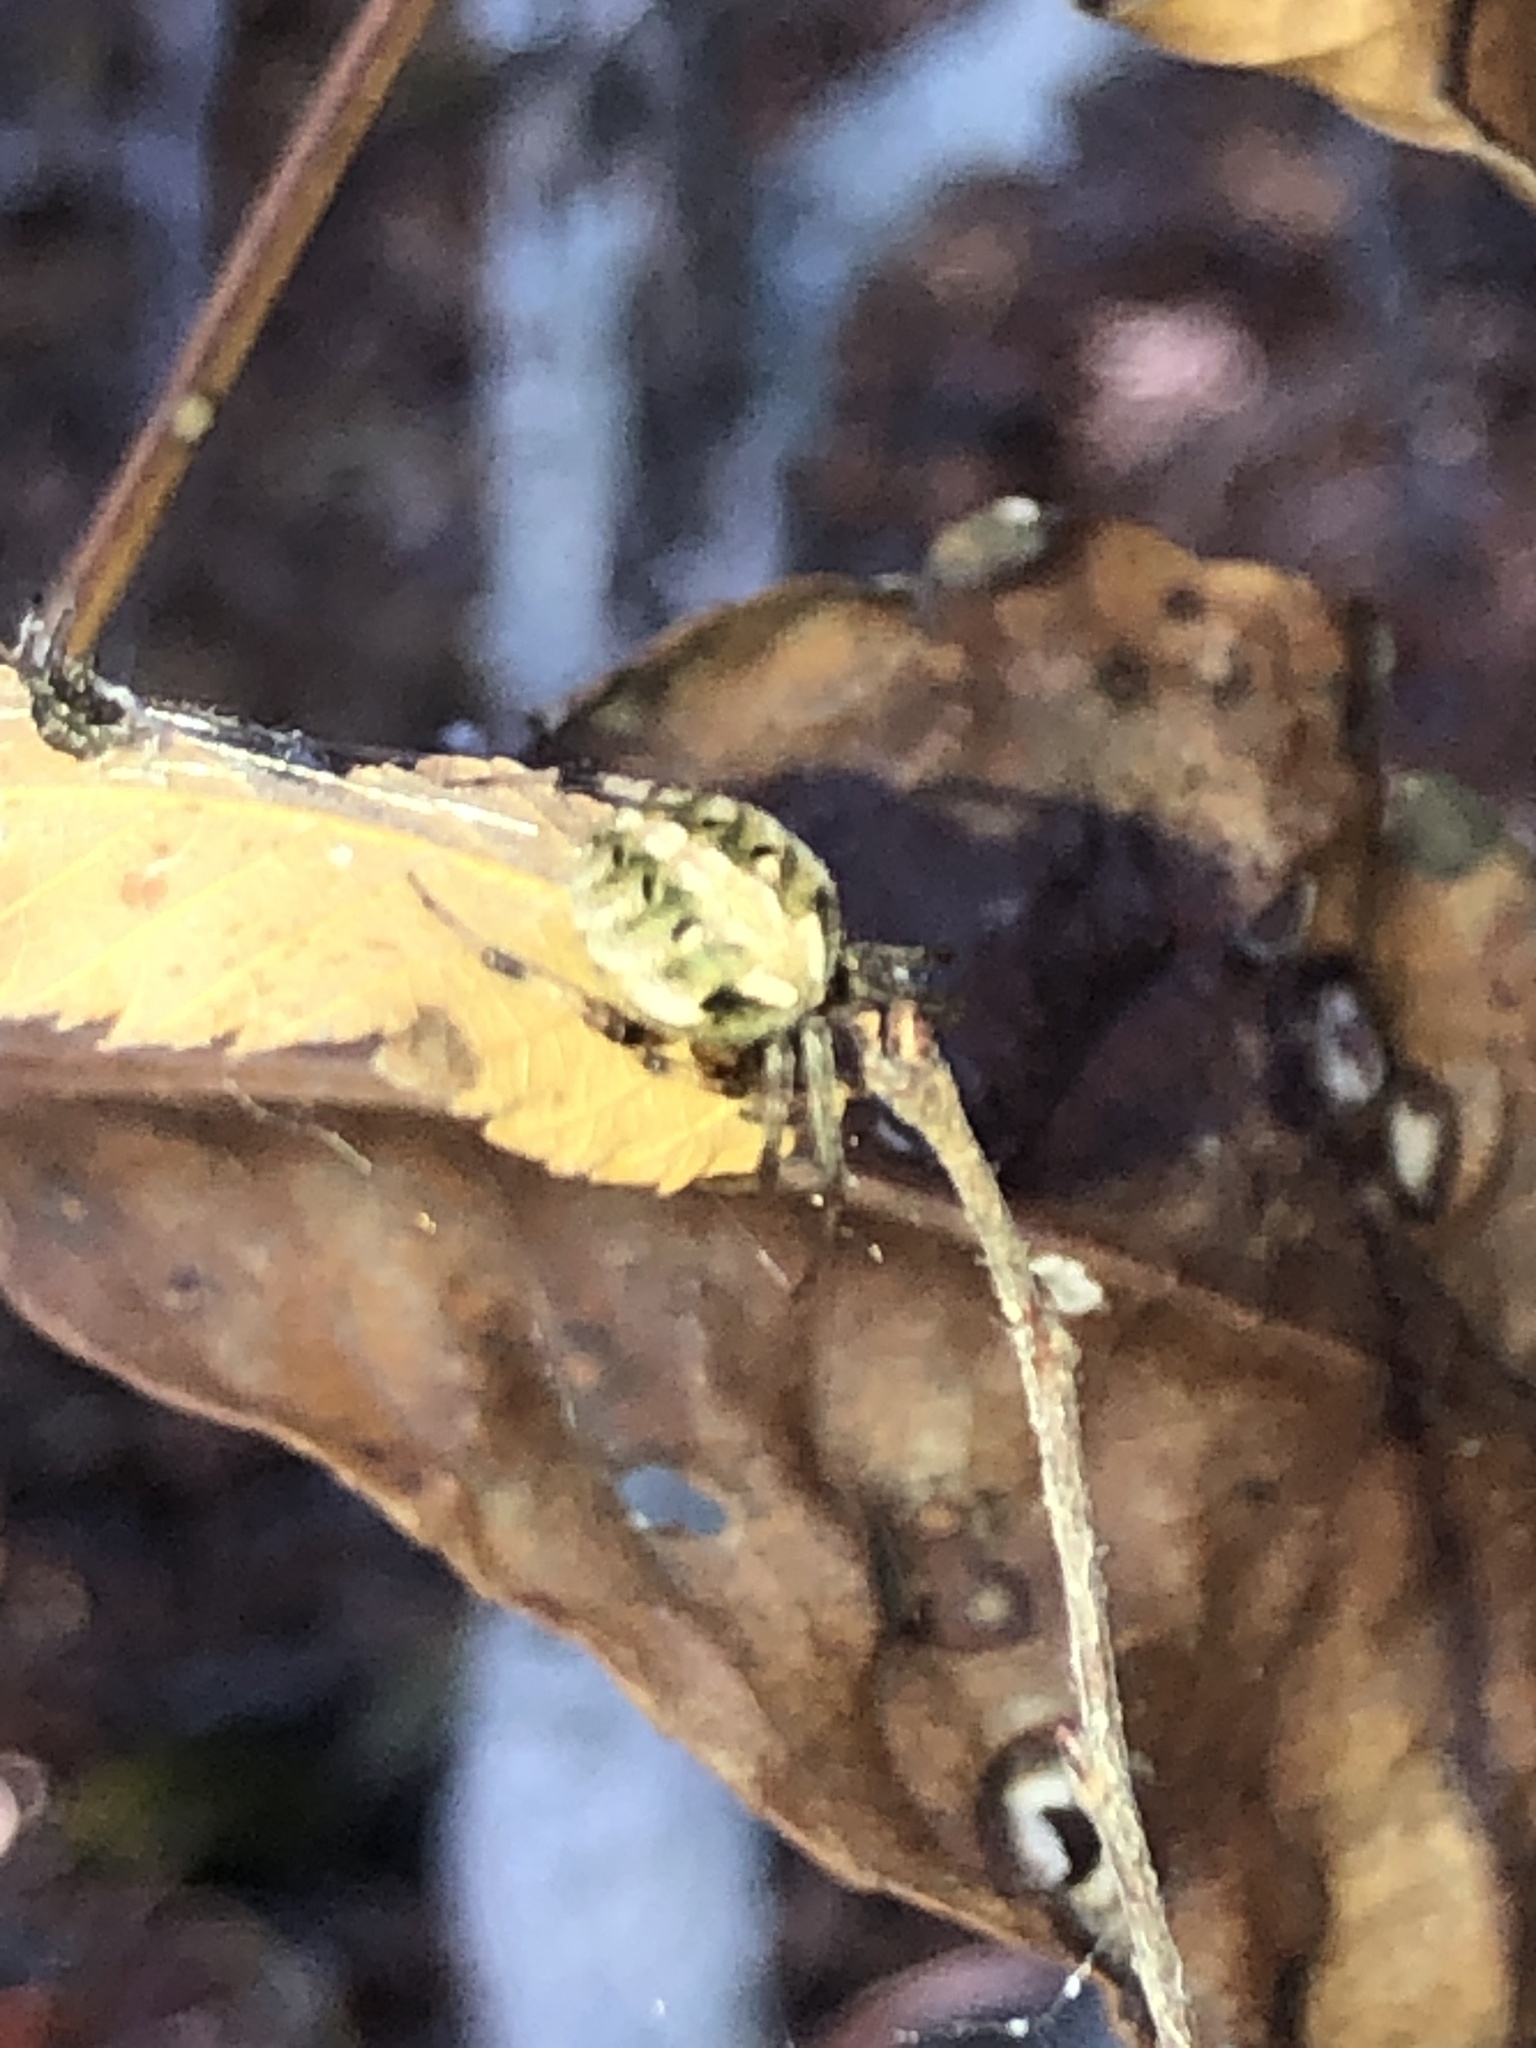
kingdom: Animalia
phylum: Arthropoda
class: Arachnida
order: Araneae
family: Araneidae
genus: Neoscona
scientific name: Neoscona arabesca
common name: Orb weavers
